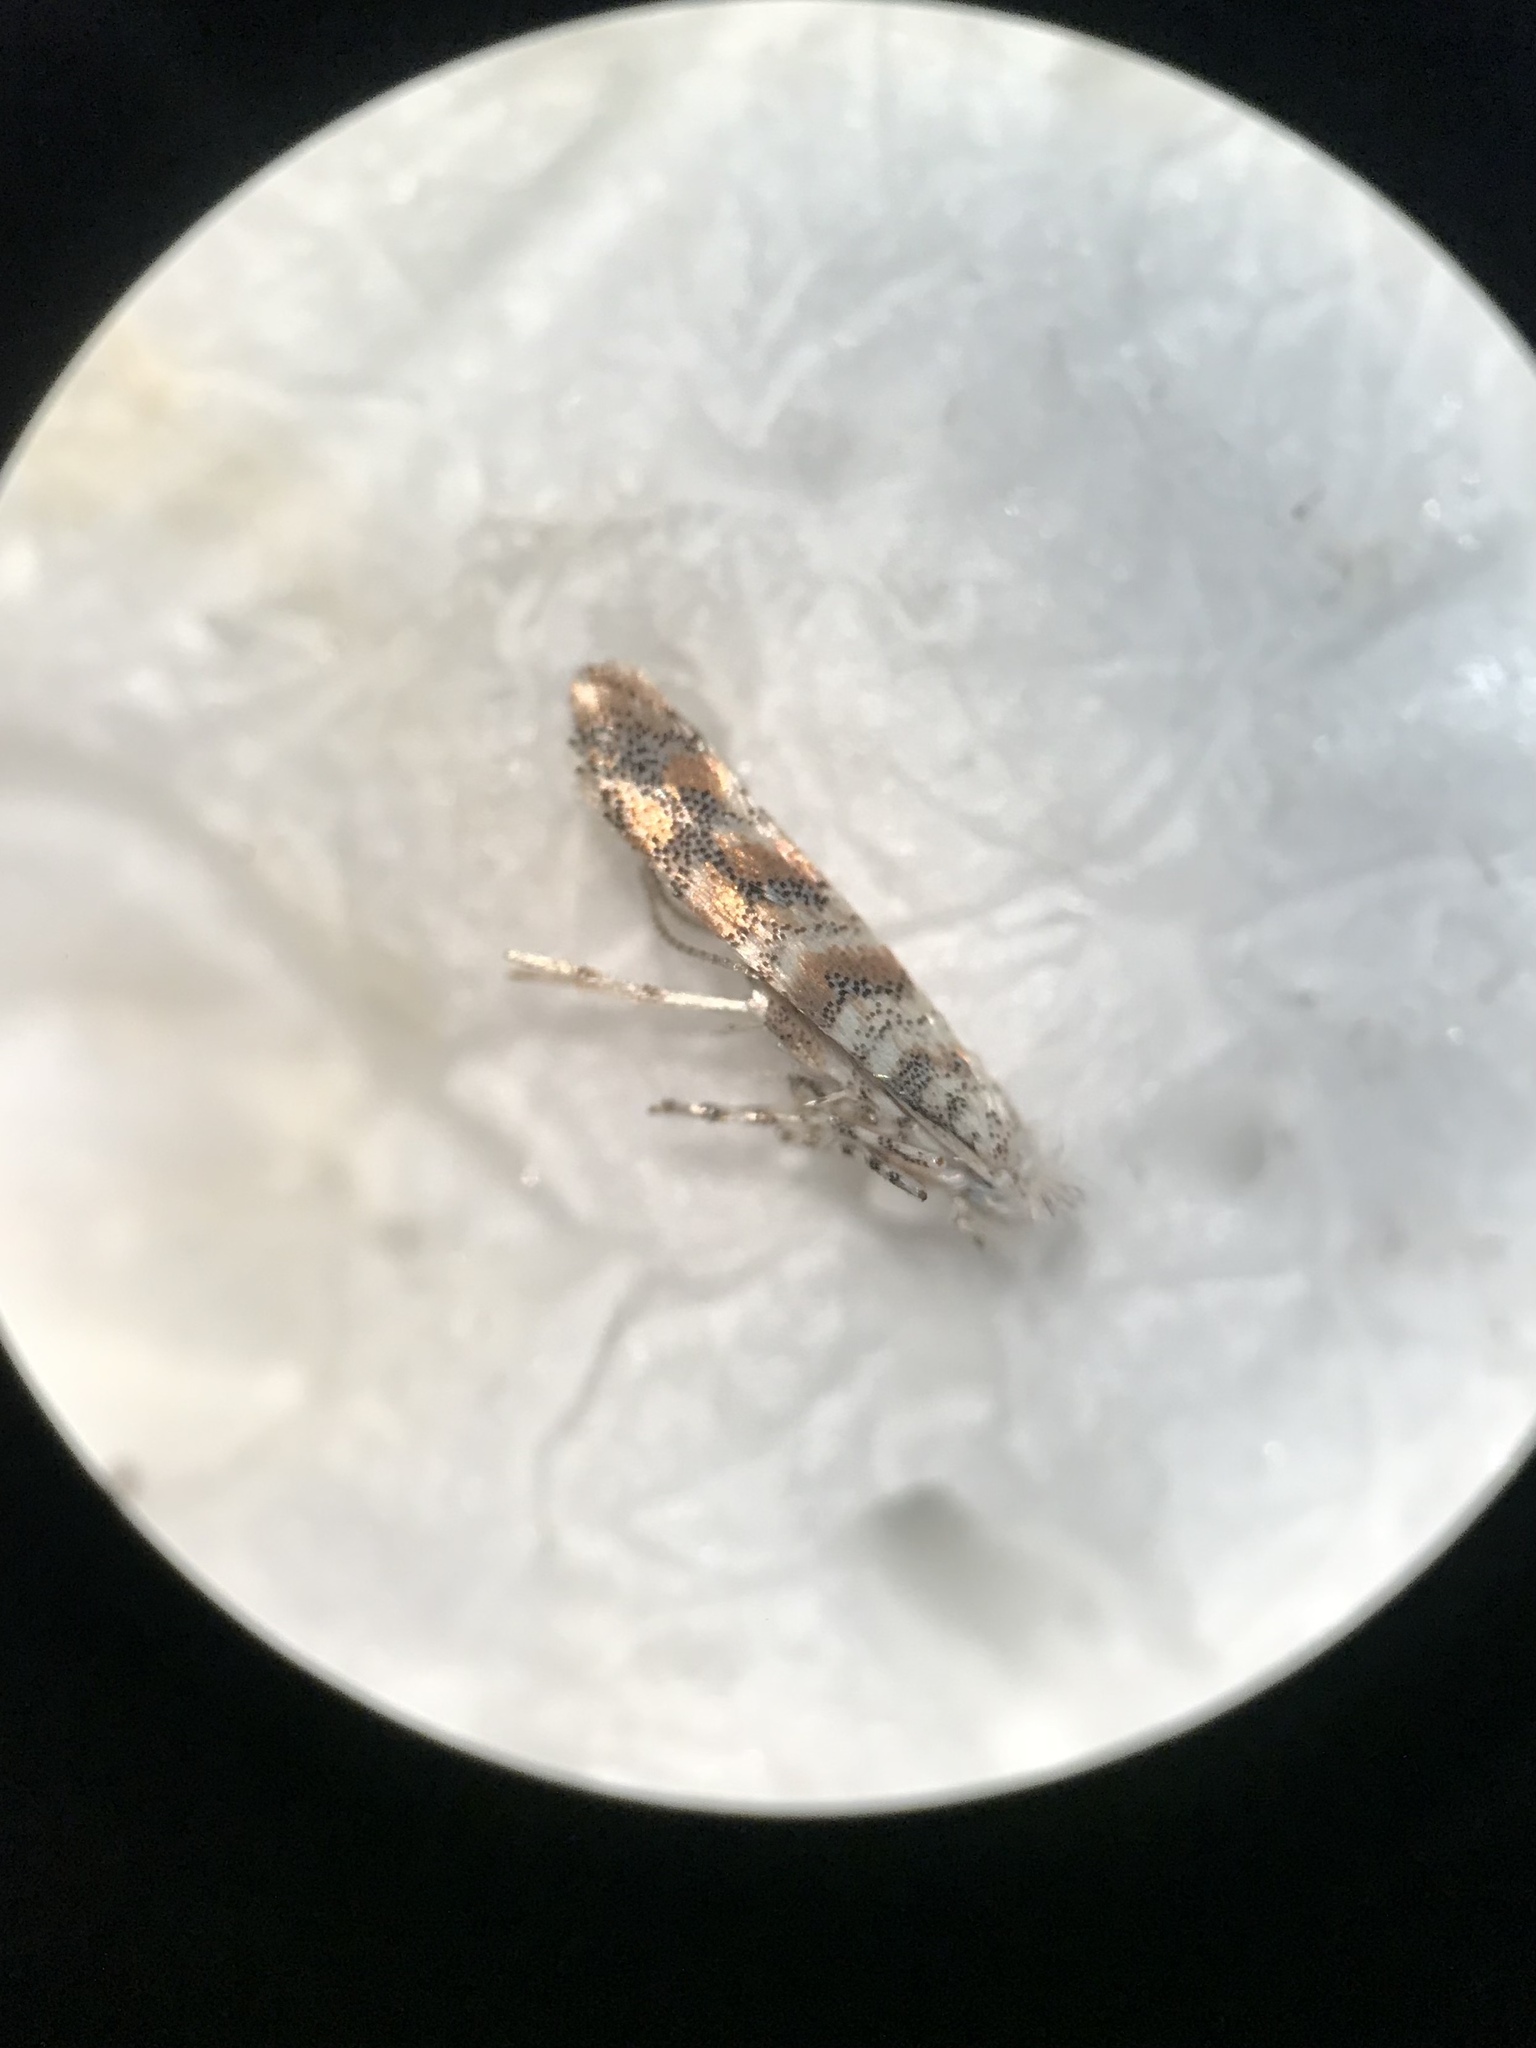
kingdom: Animalia
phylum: Arthropoda
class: Insecta
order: Lepidoptera
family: Gracillariidae
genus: Cameraria
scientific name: Cameraria hamadryadella
